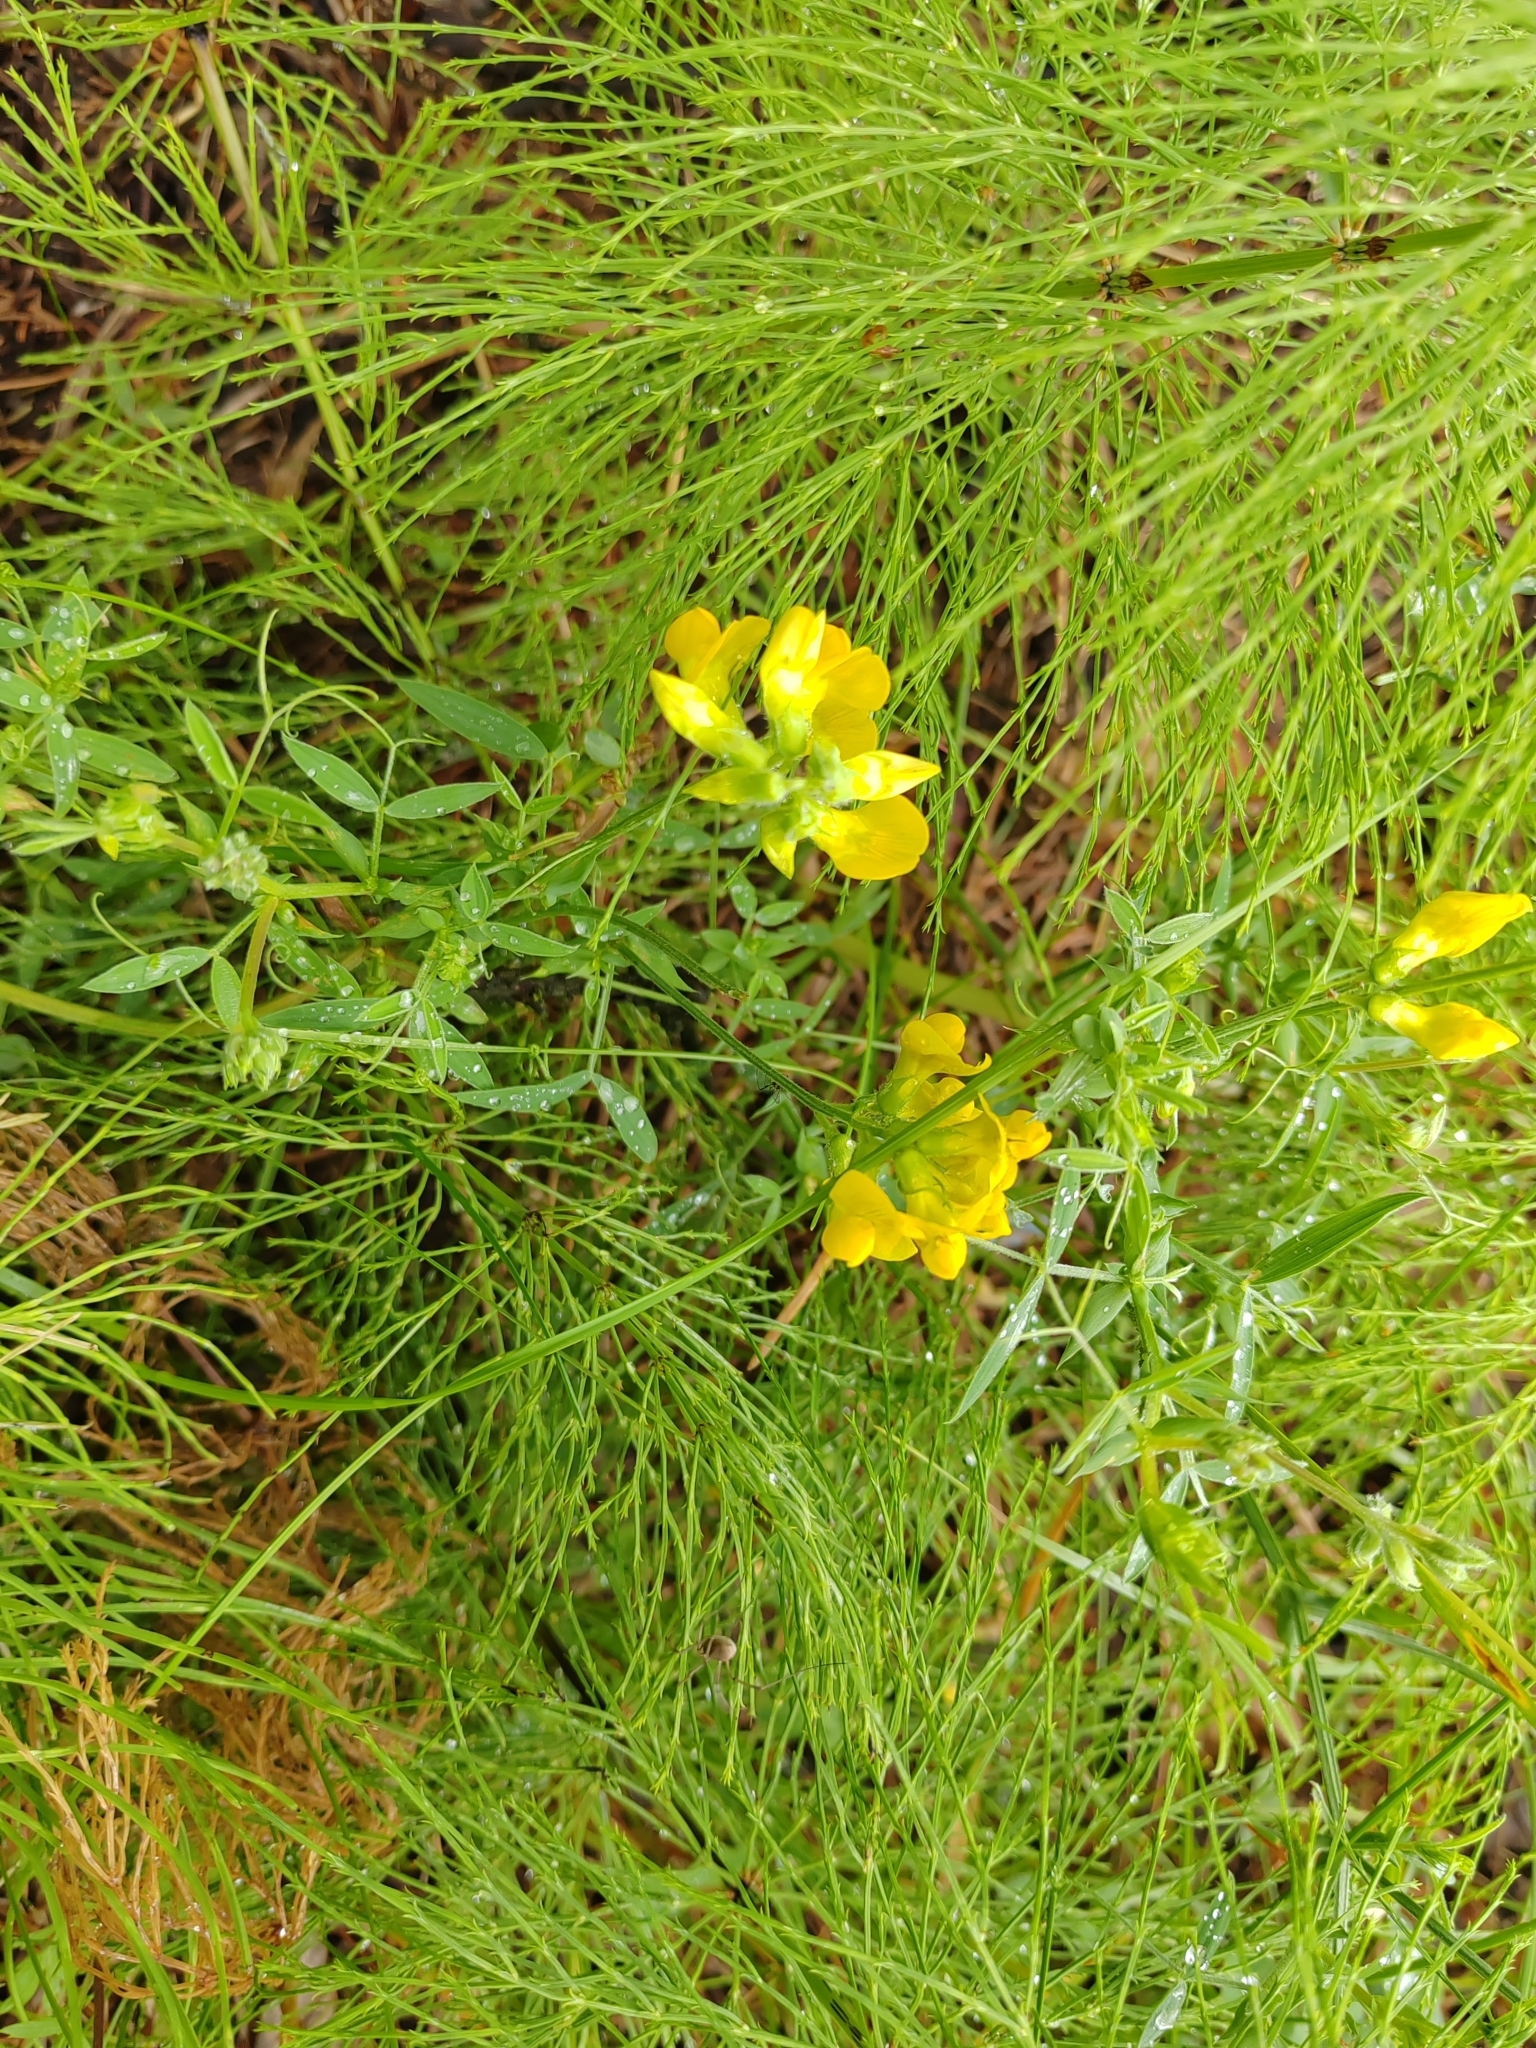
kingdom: Plantae
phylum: Tracheophyta
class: Magnoliopsida
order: Fabales
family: Fabaceae
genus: Lathyrus
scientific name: Lathyrus pratensis
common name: Meadow vetchling
